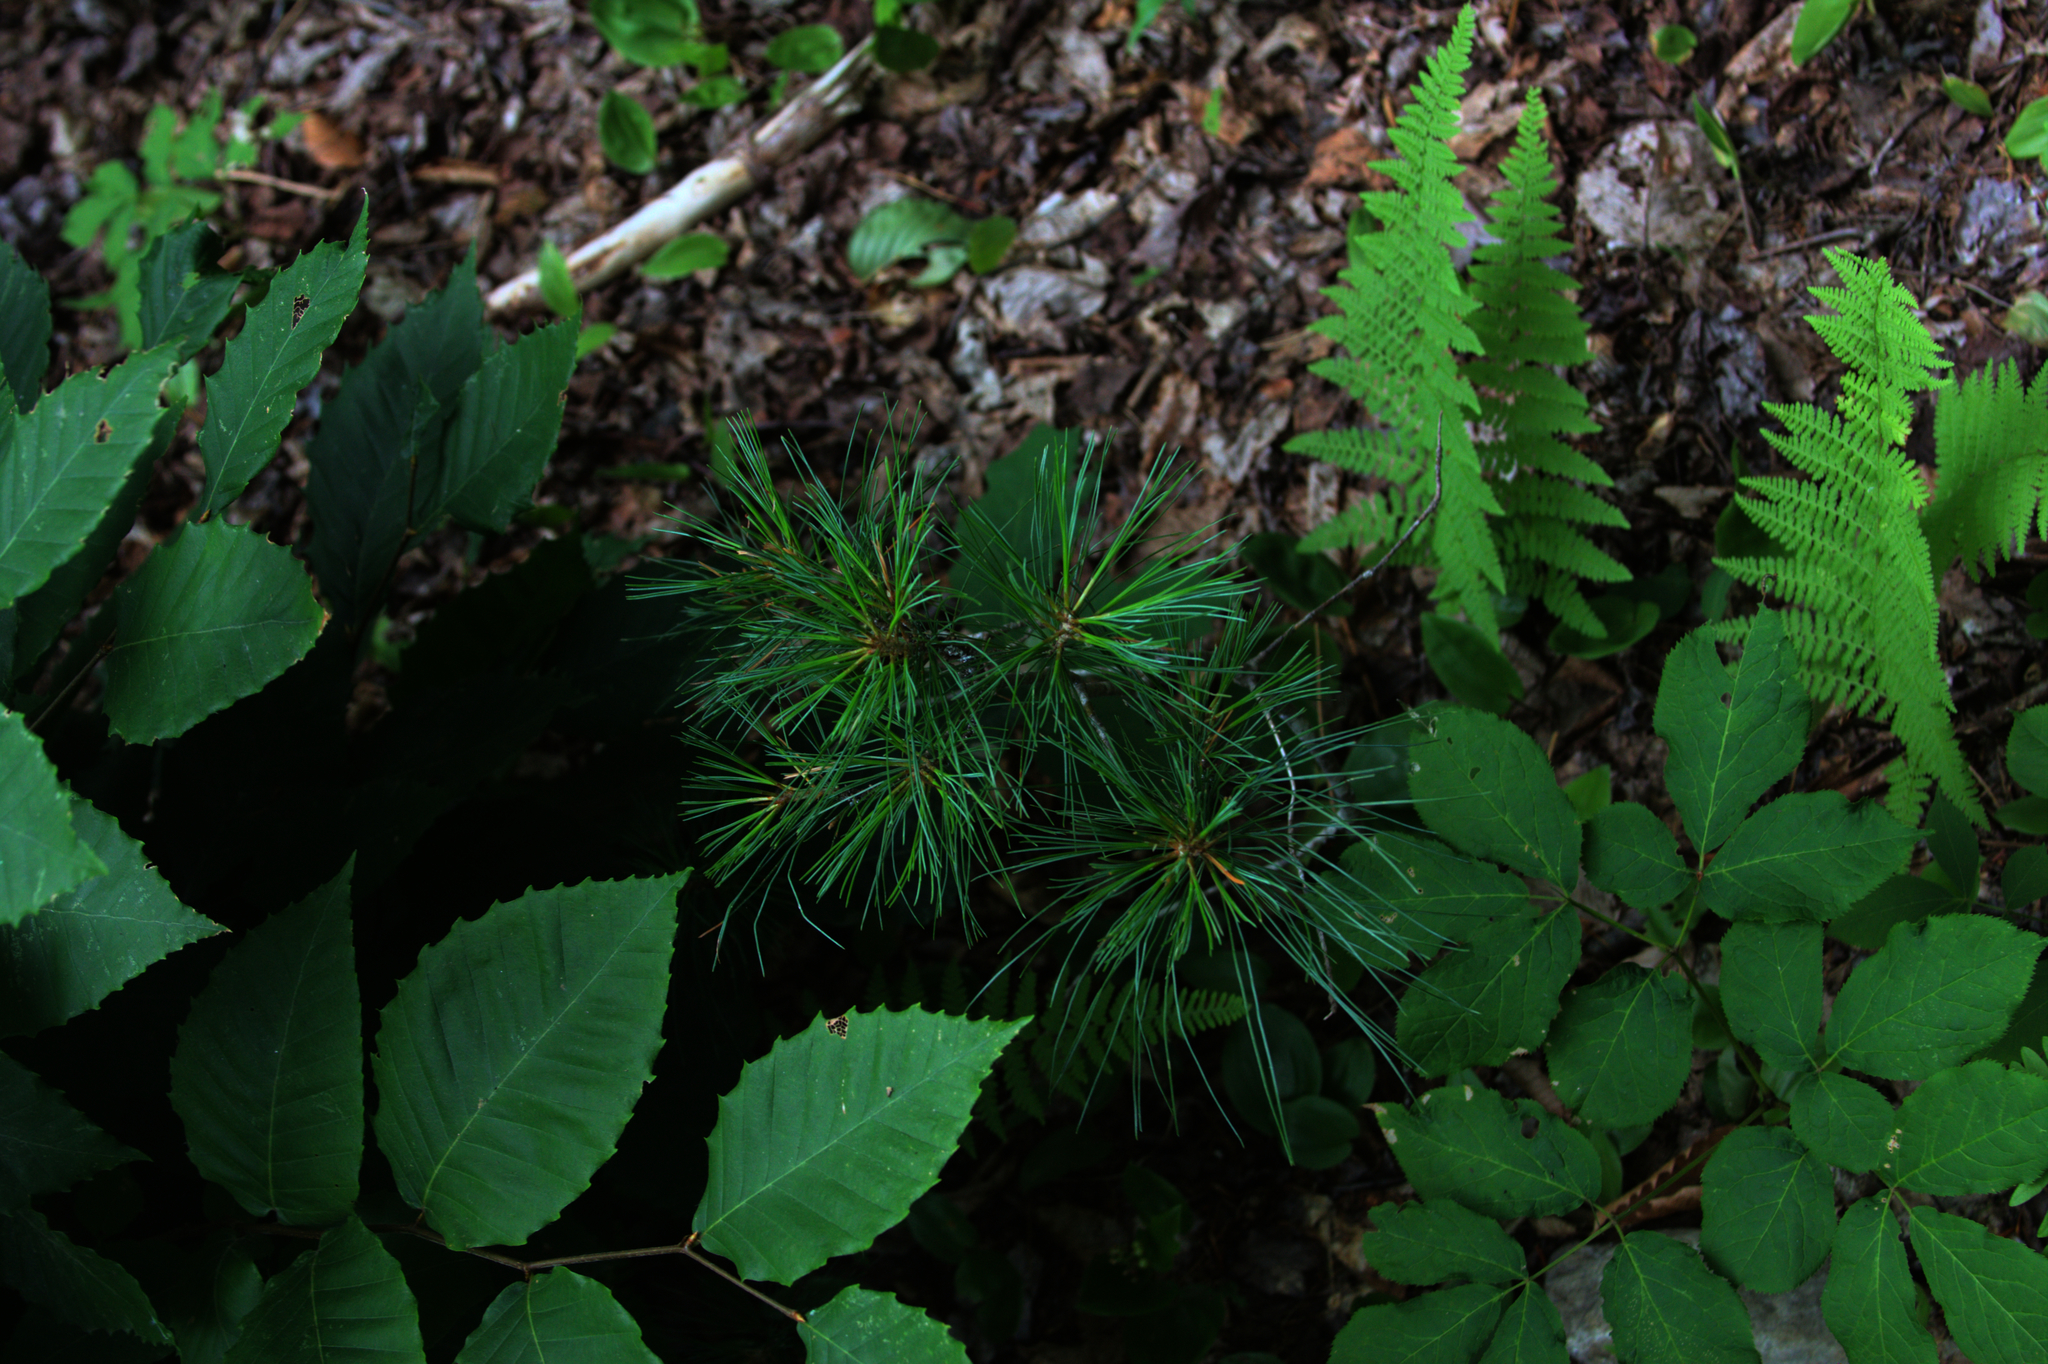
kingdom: Plantae
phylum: Tracheophyta
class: Pinopsida
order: Pinales
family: Pinaceae
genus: Pinus
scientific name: Pinus strobus
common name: Weymouth pine
